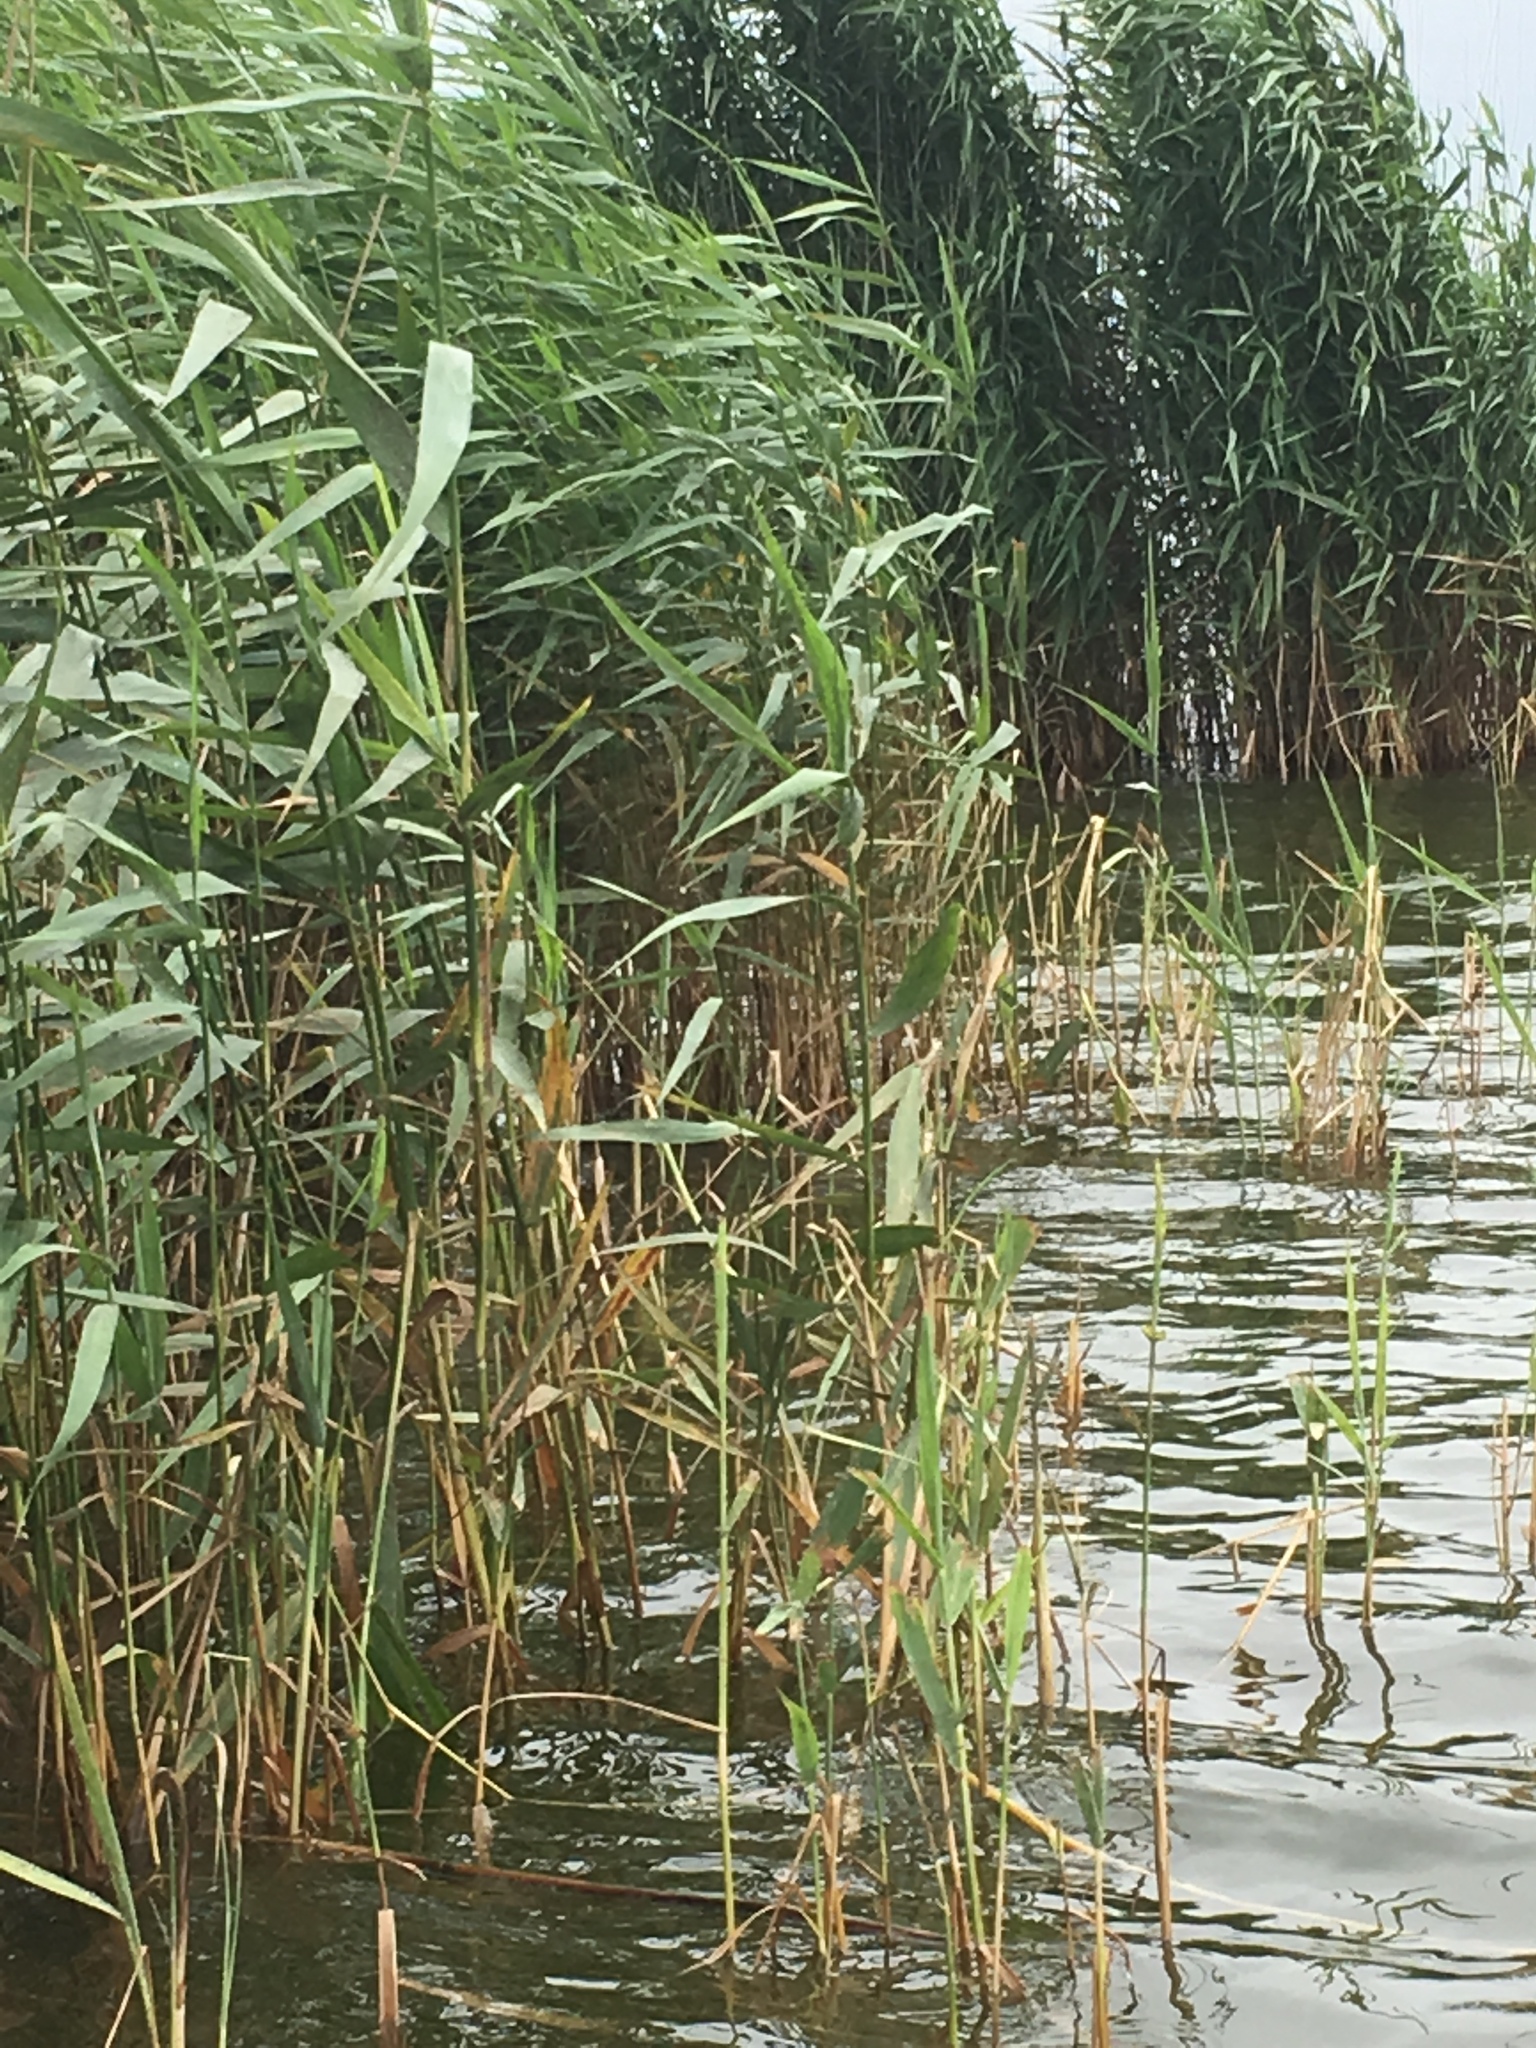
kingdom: Plantae
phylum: Tracheophyta
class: Liliopsida
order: Poales
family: Poaceae
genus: Phragmites
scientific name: Phragmites australis
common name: Common reed
